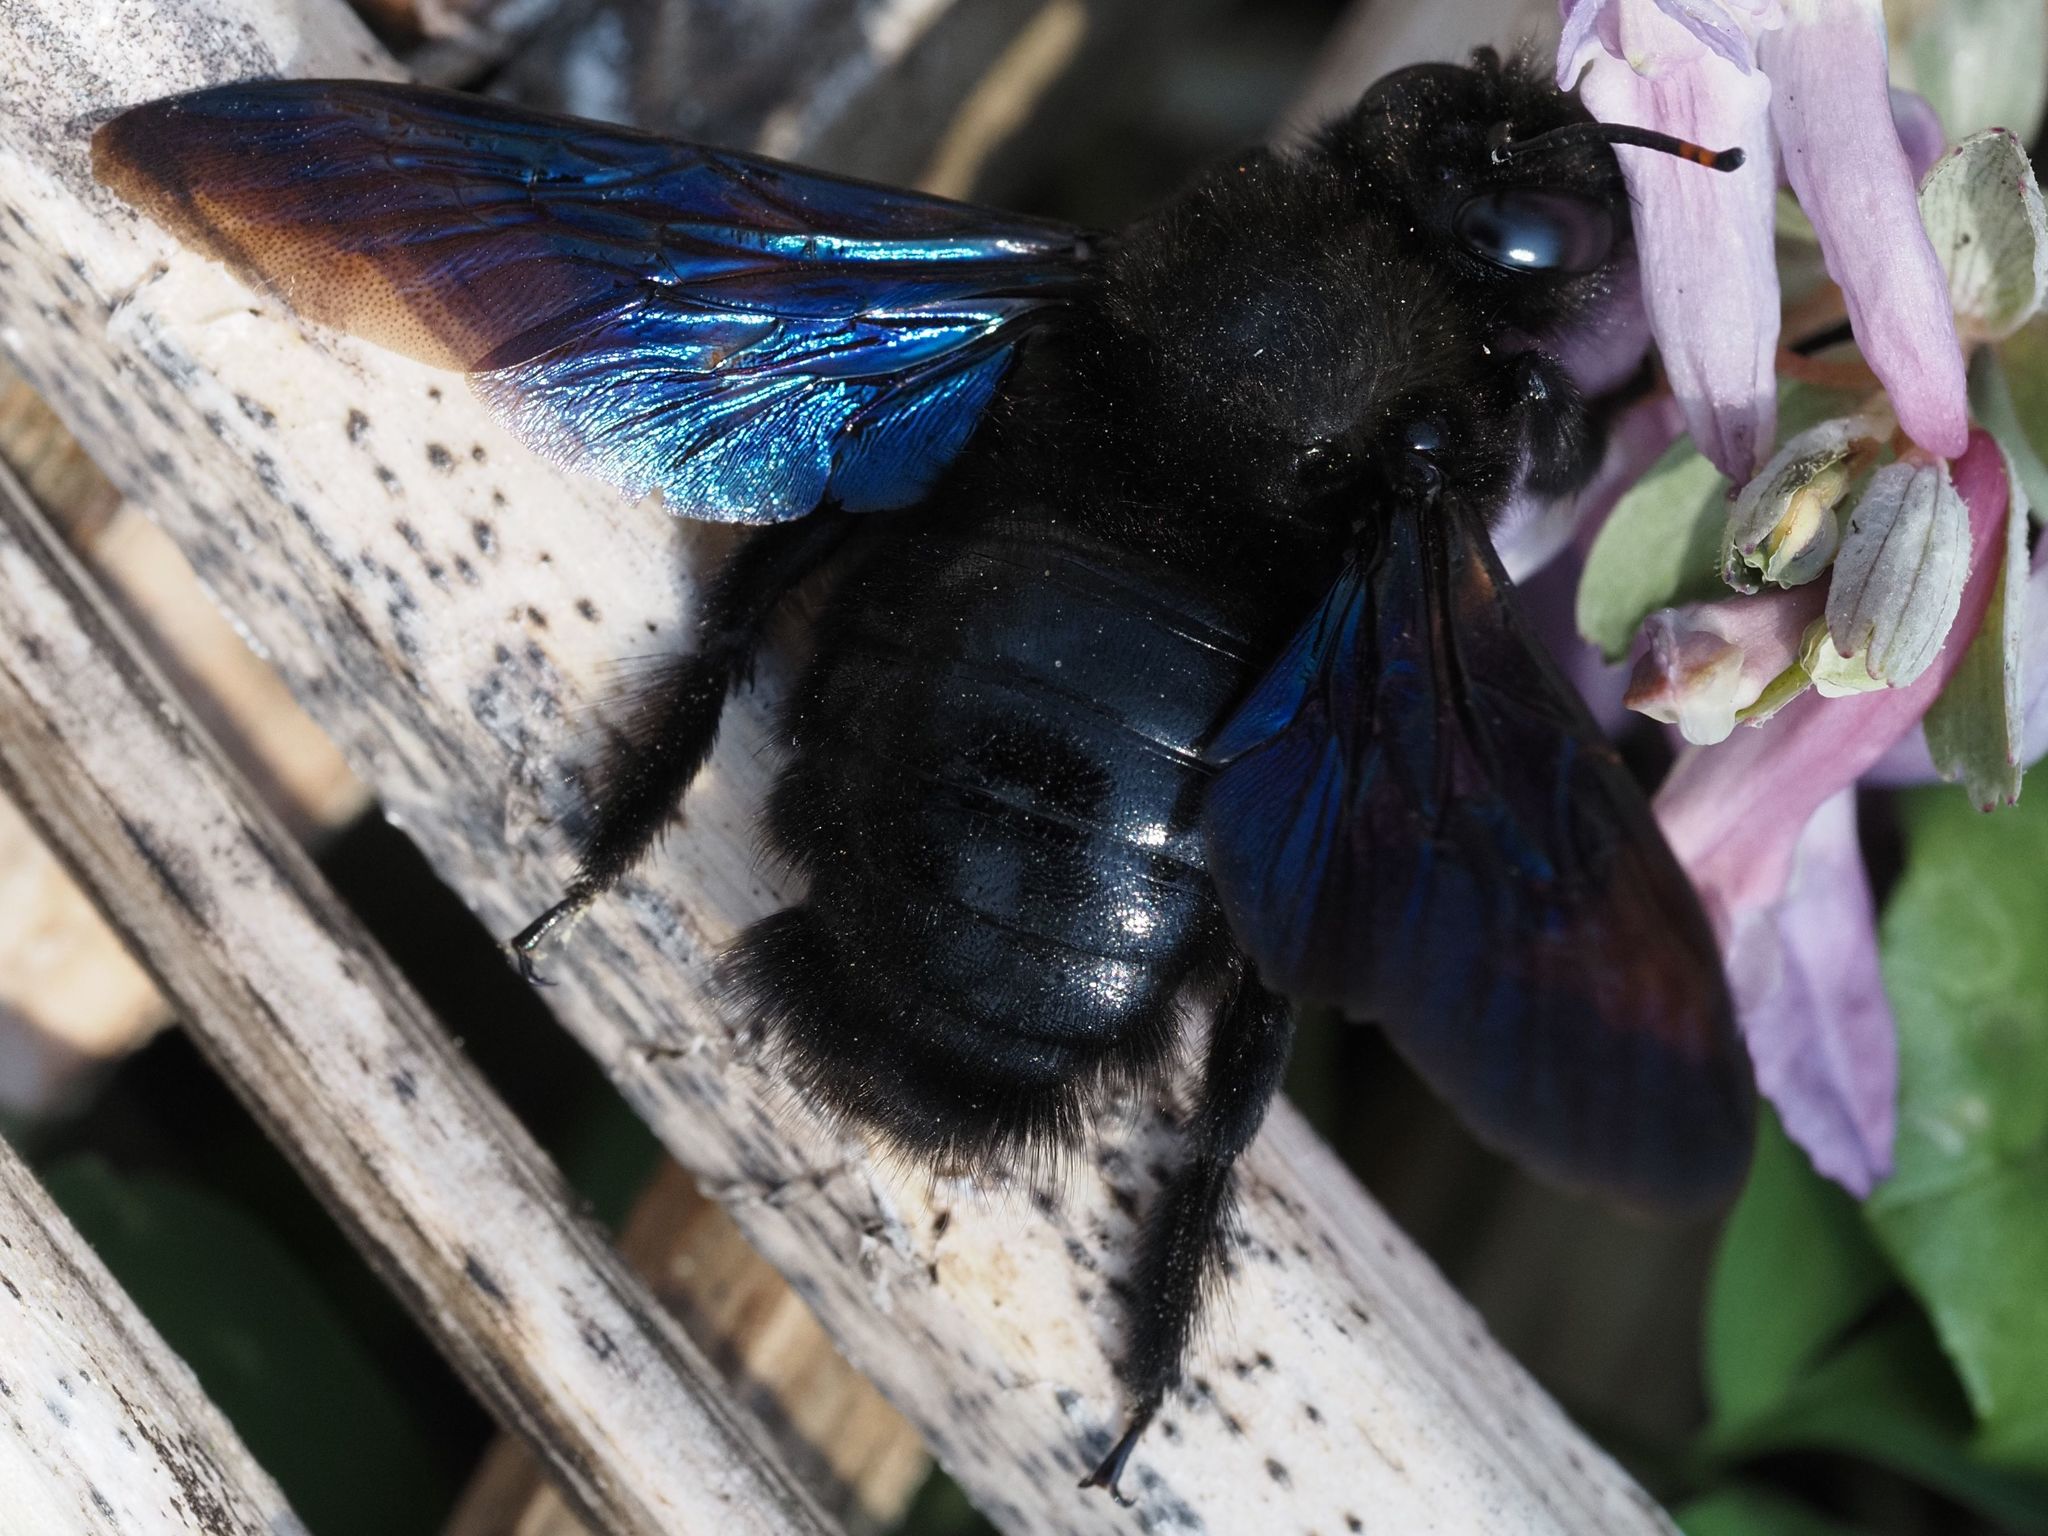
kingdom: Animalia
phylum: Arthropoda
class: Insecta
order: Hymenoptera
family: Apidae
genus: Xylocopa
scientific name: Xylocopa violacea
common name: Violet carpenter bee
